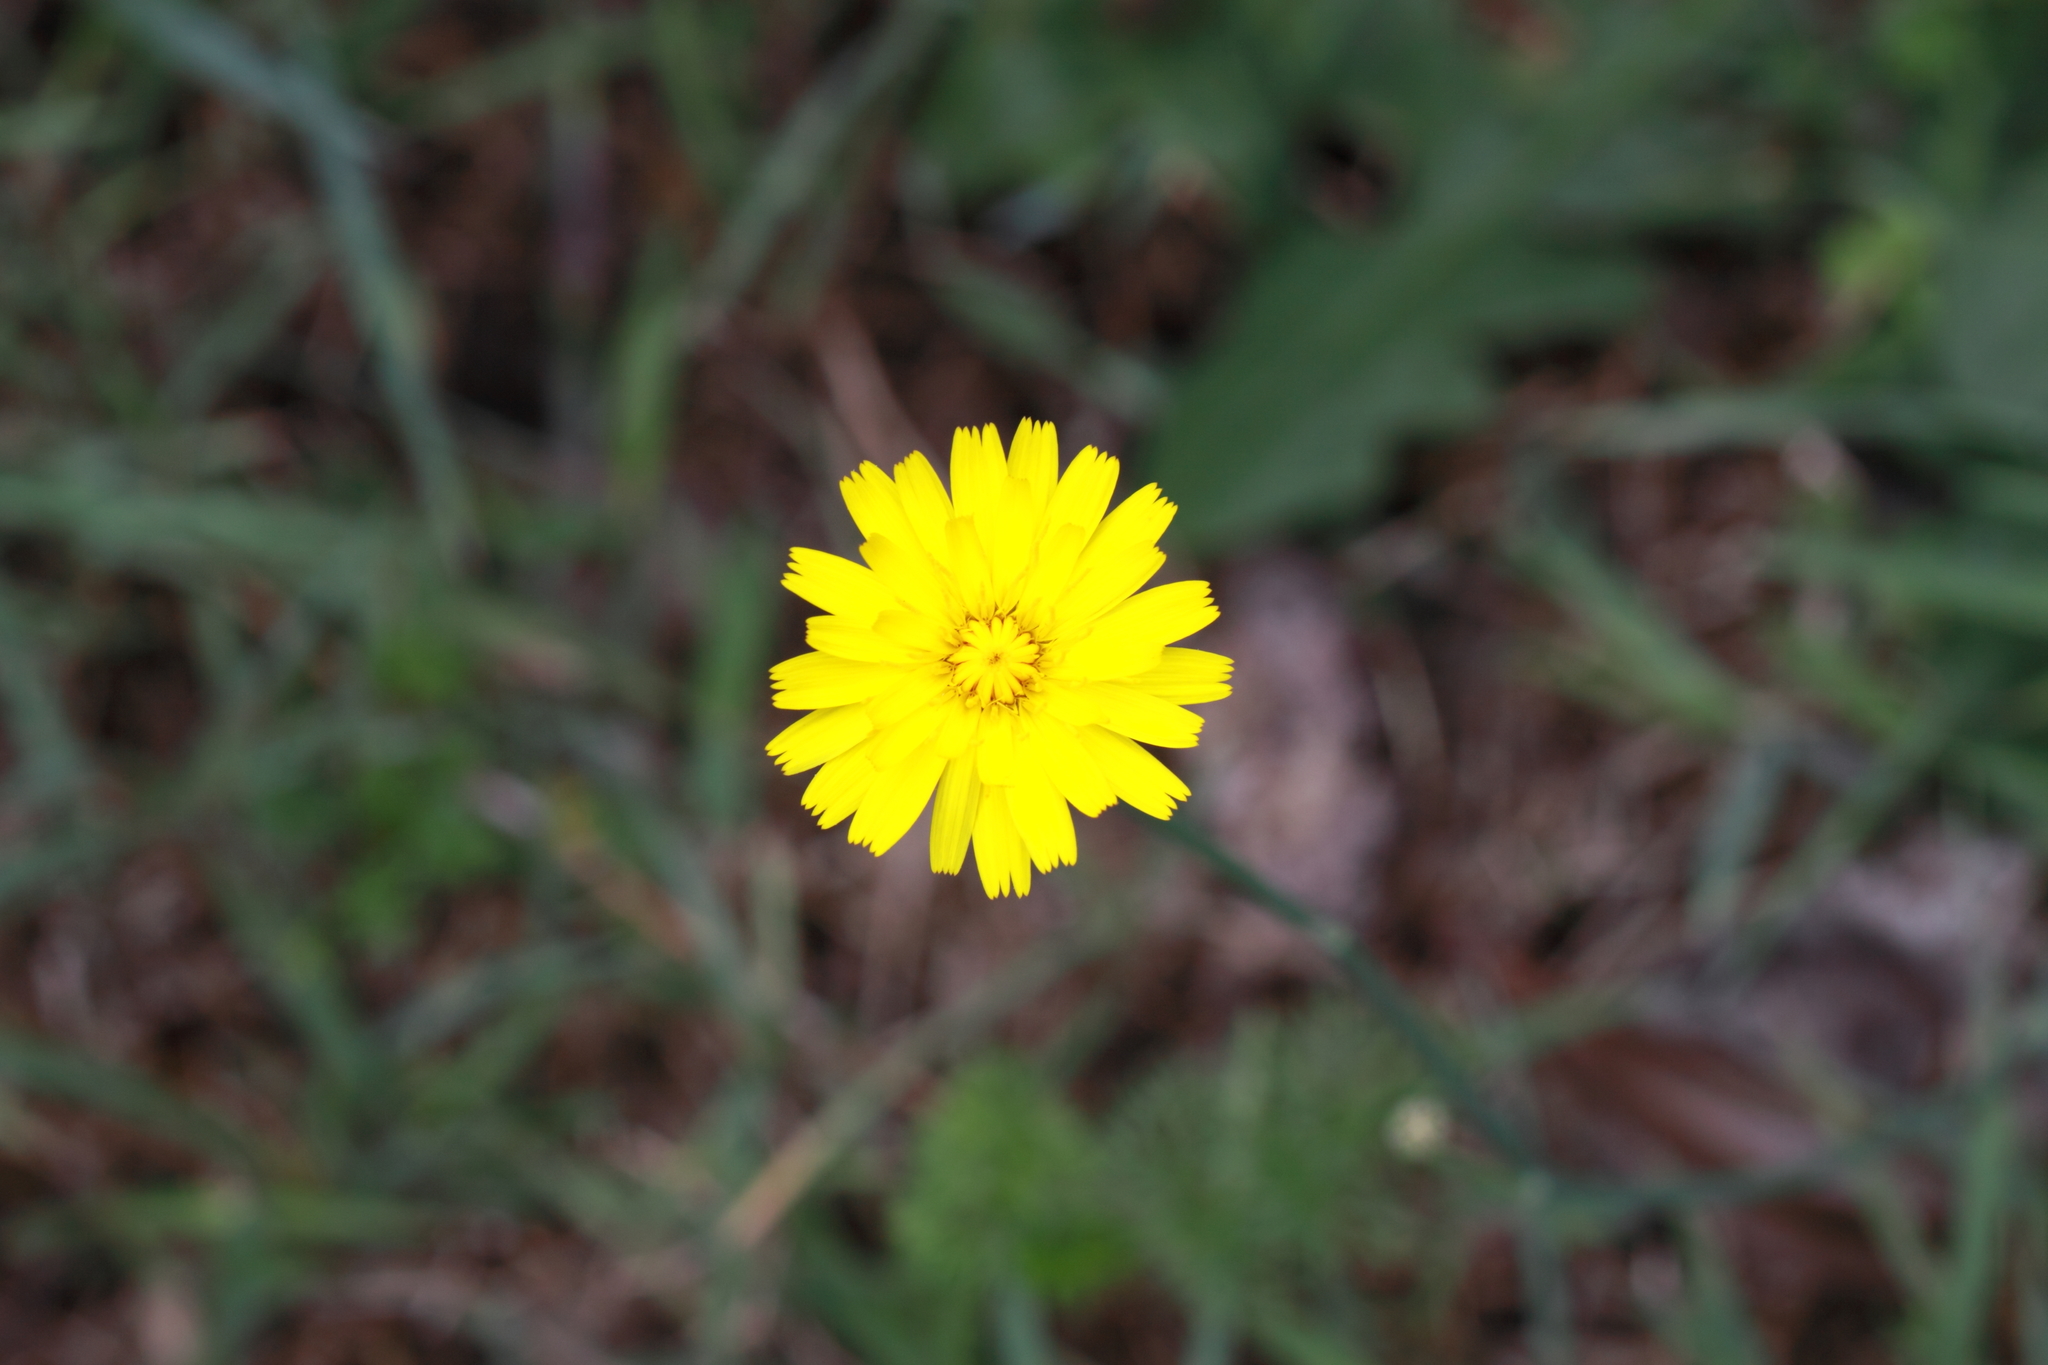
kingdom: Plantae
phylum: Tracheophyta
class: Magnoliopsida
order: Asterales
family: Asteraceae
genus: Hypochaeris
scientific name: Hypochaeris radicata
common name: Flatweed
